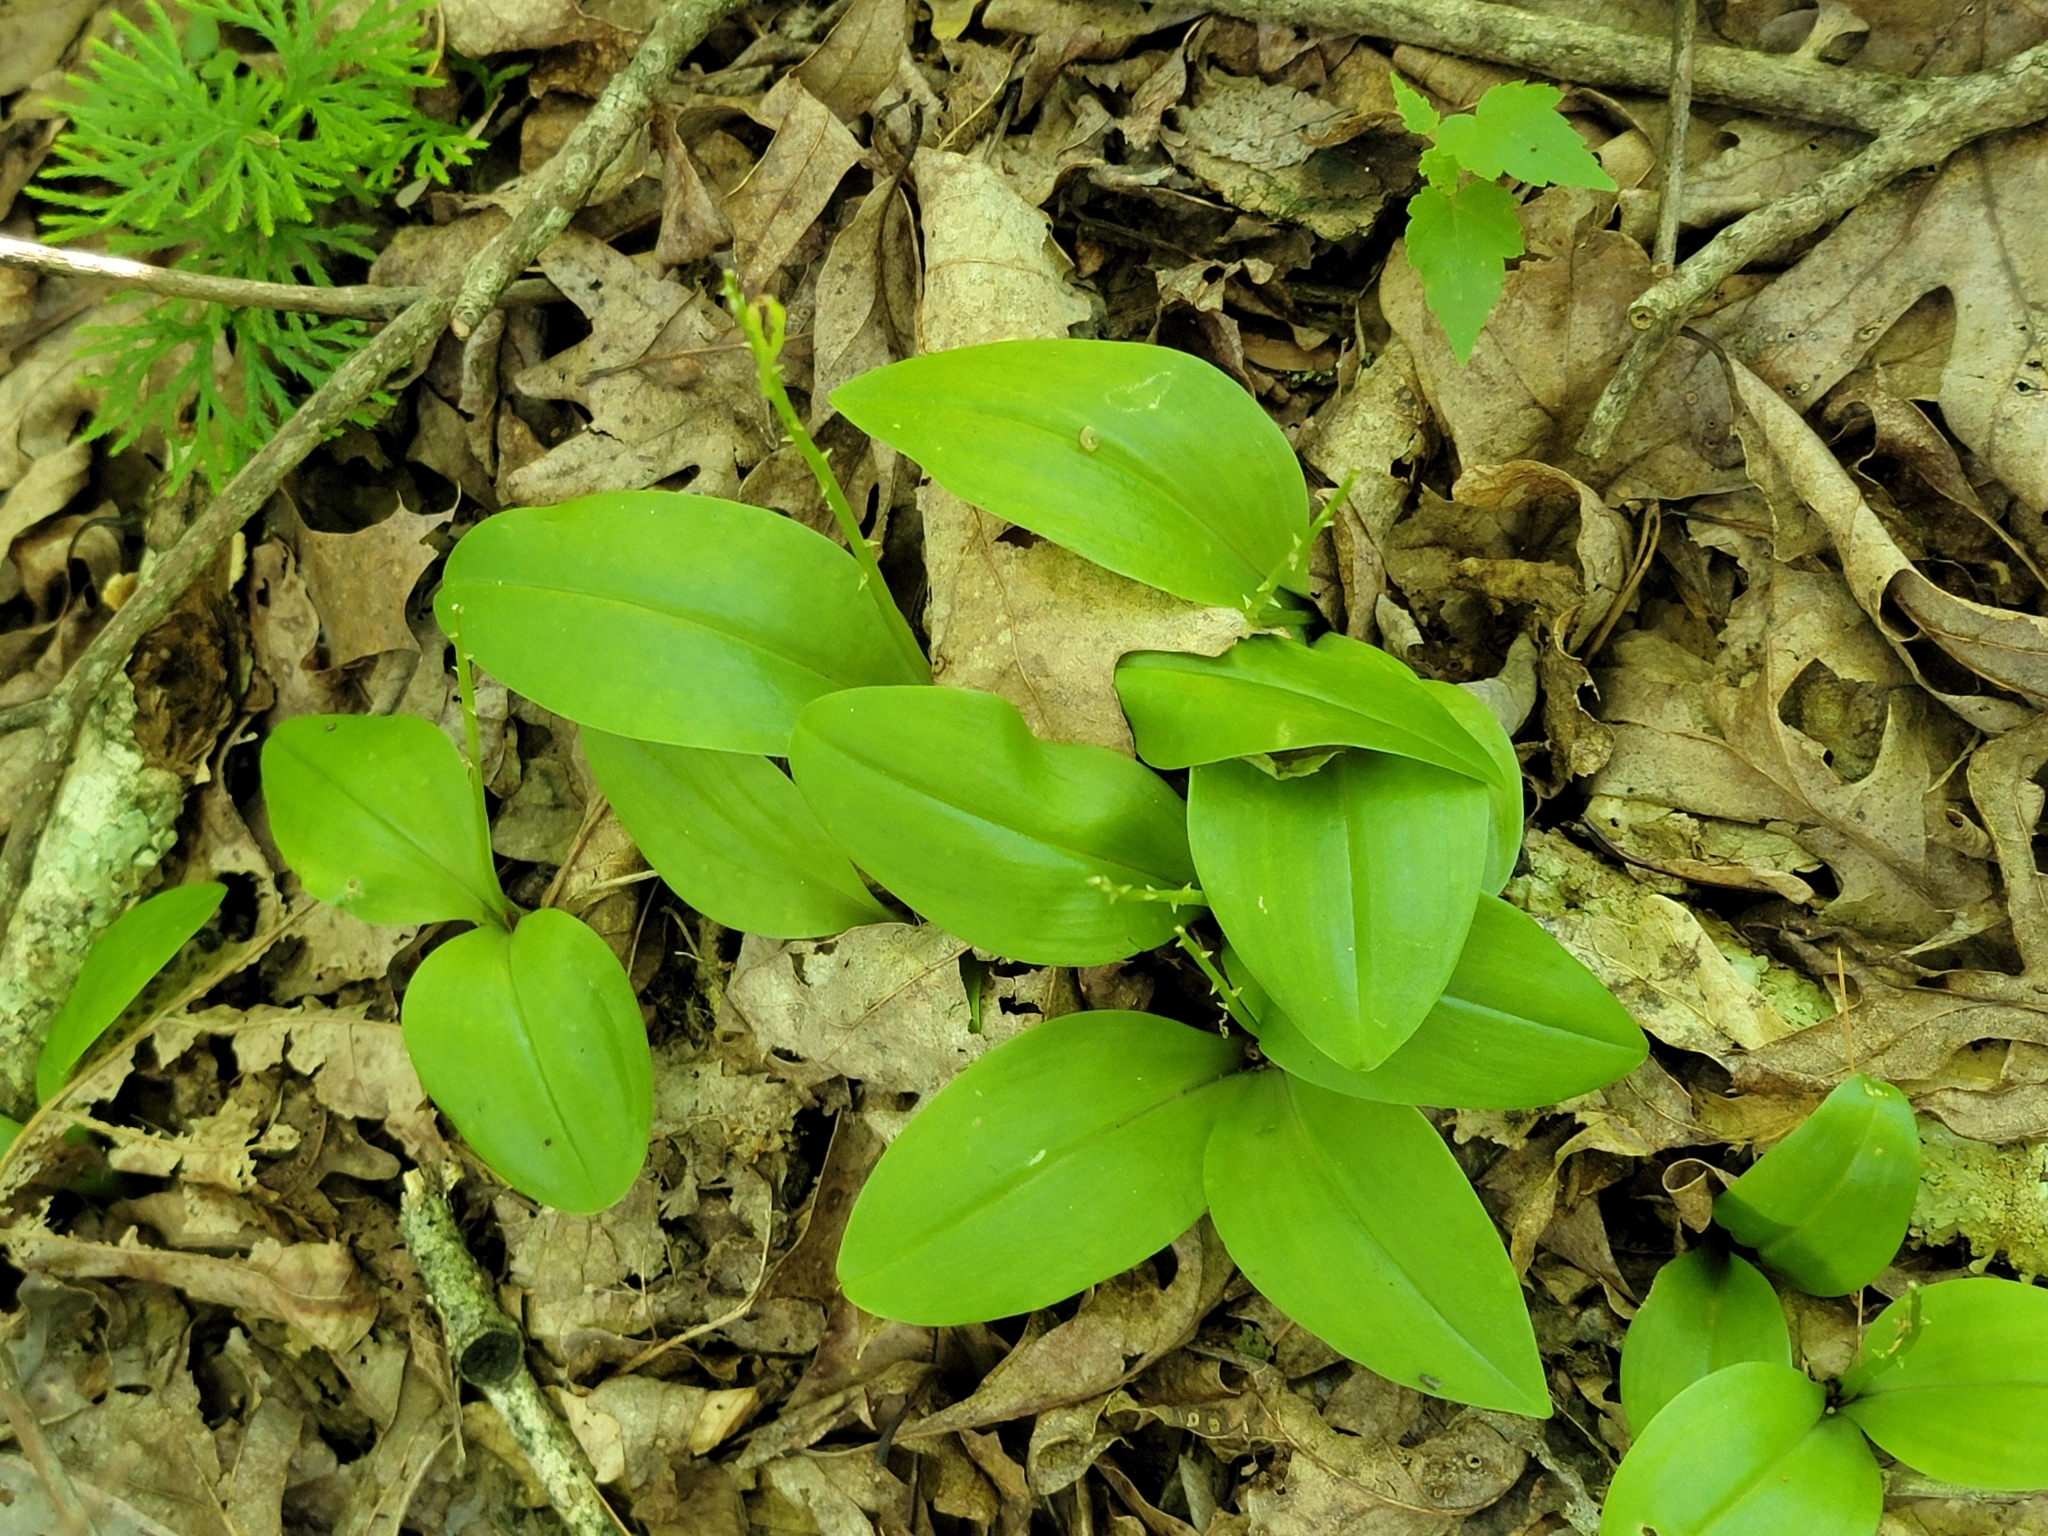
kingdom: Plantae
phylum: Tracheophyta
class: Liliopsida
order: Asparagales
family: Orchidaceae
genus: Liparis
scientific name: Liparis liliifolia
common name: Brown wide-lip orchid
